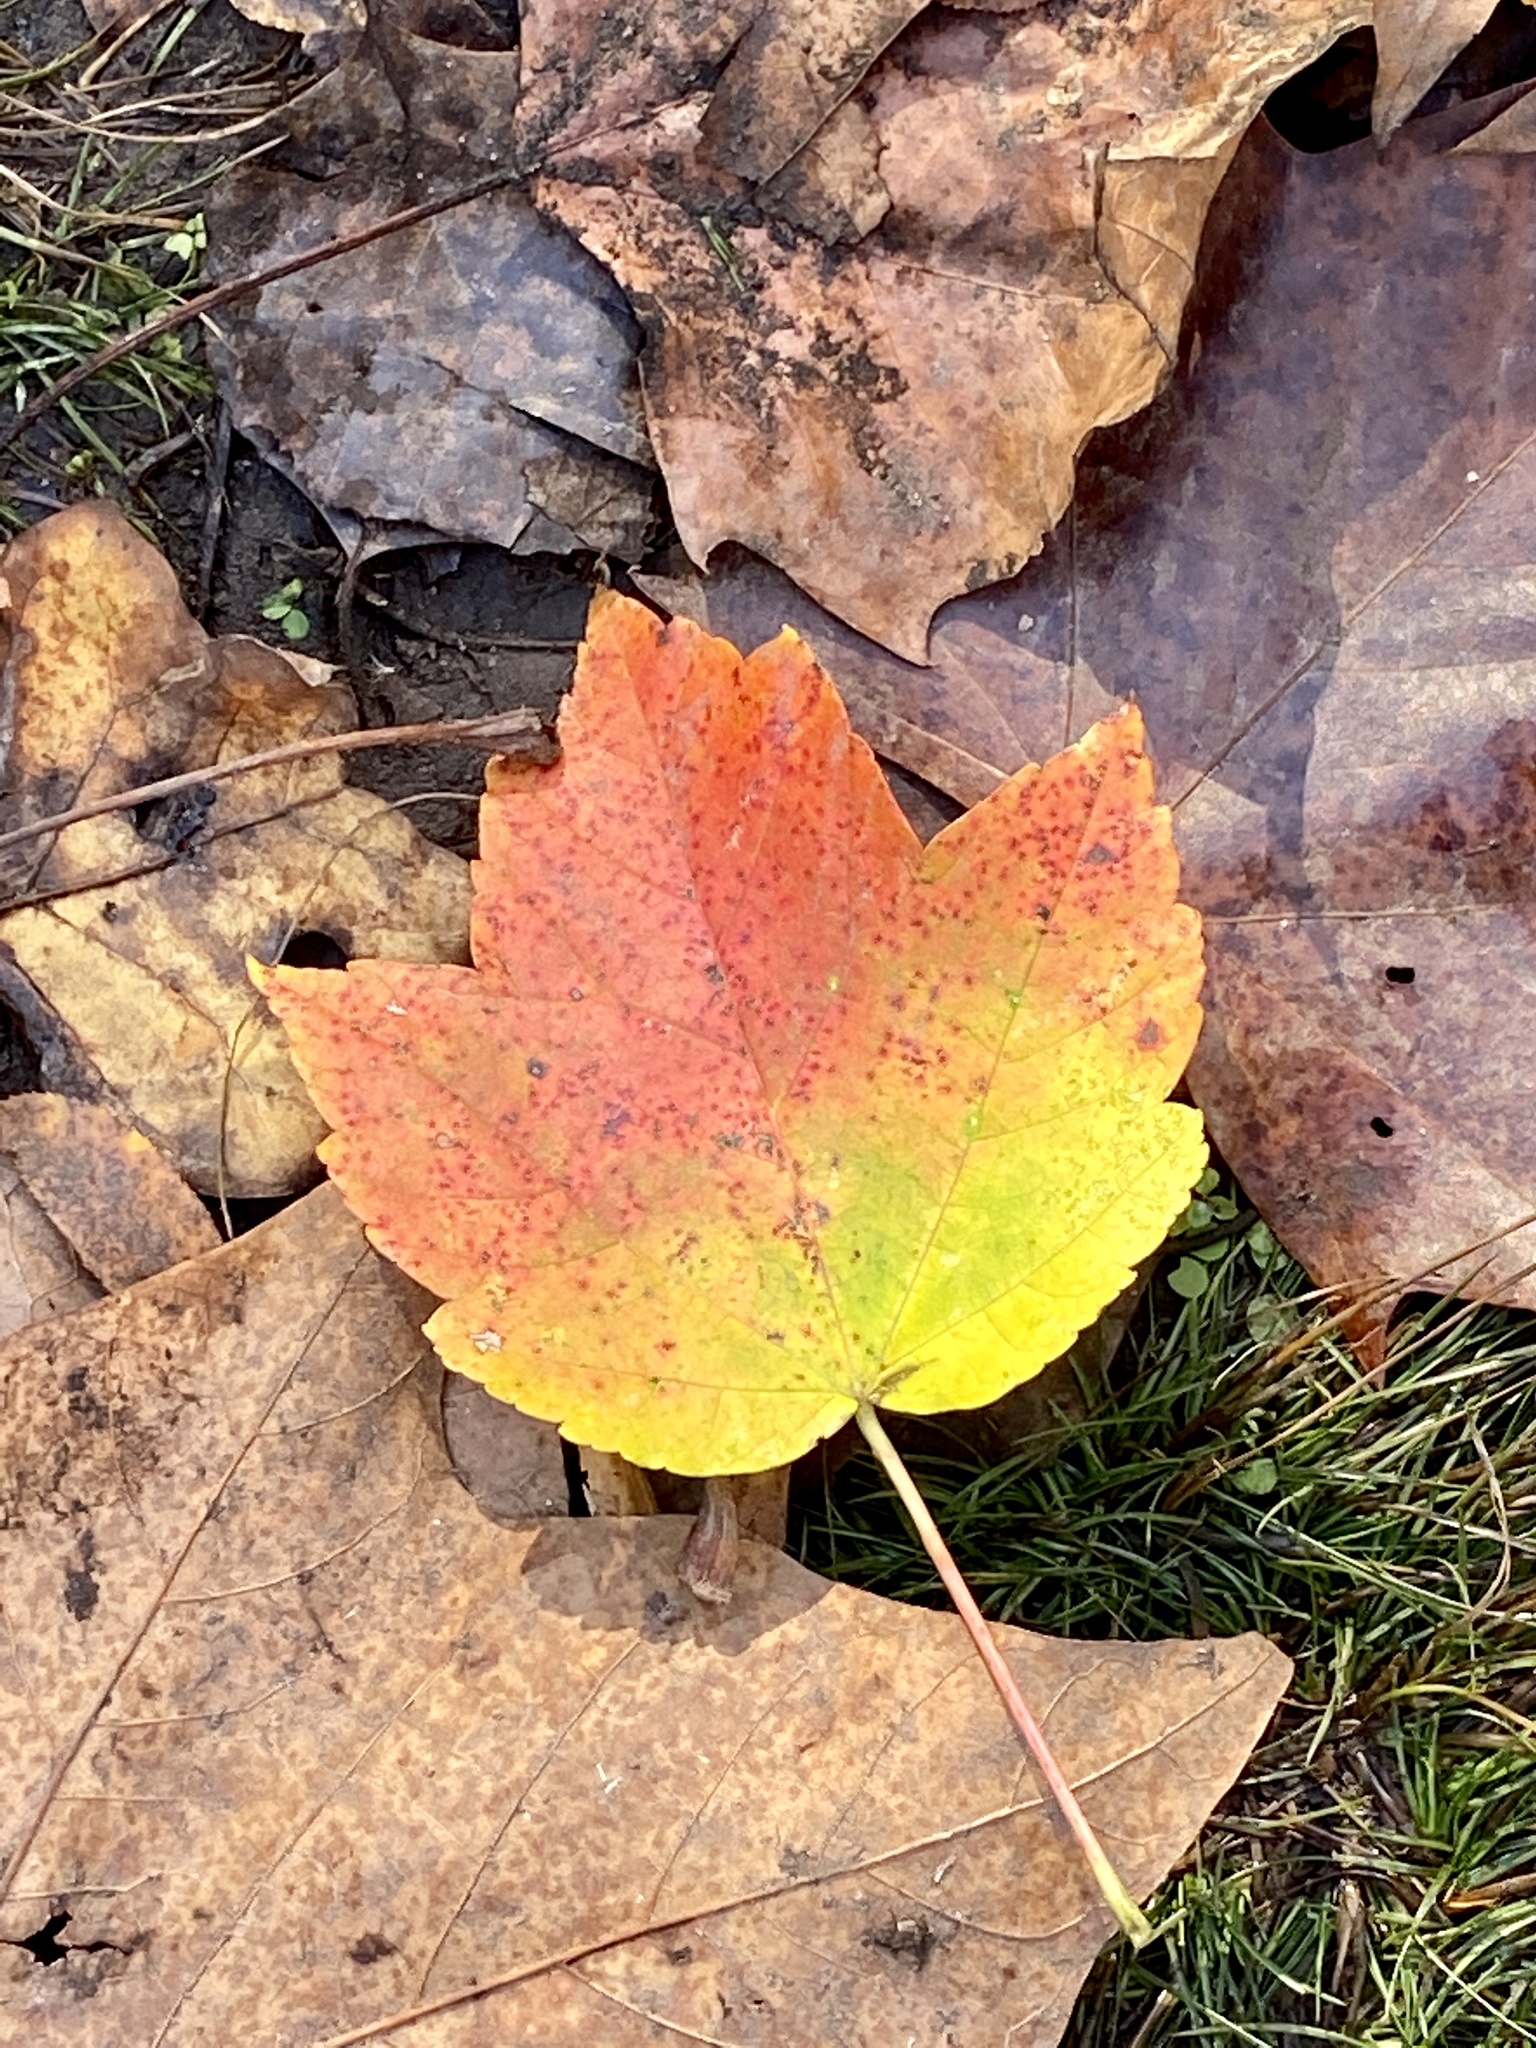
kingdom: Plantae
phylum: Tracheophyta
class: Magnoliopsida
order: Sapindales
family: Sapindaceae
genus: Acer
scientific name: Acer rubrum
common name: Red maple
